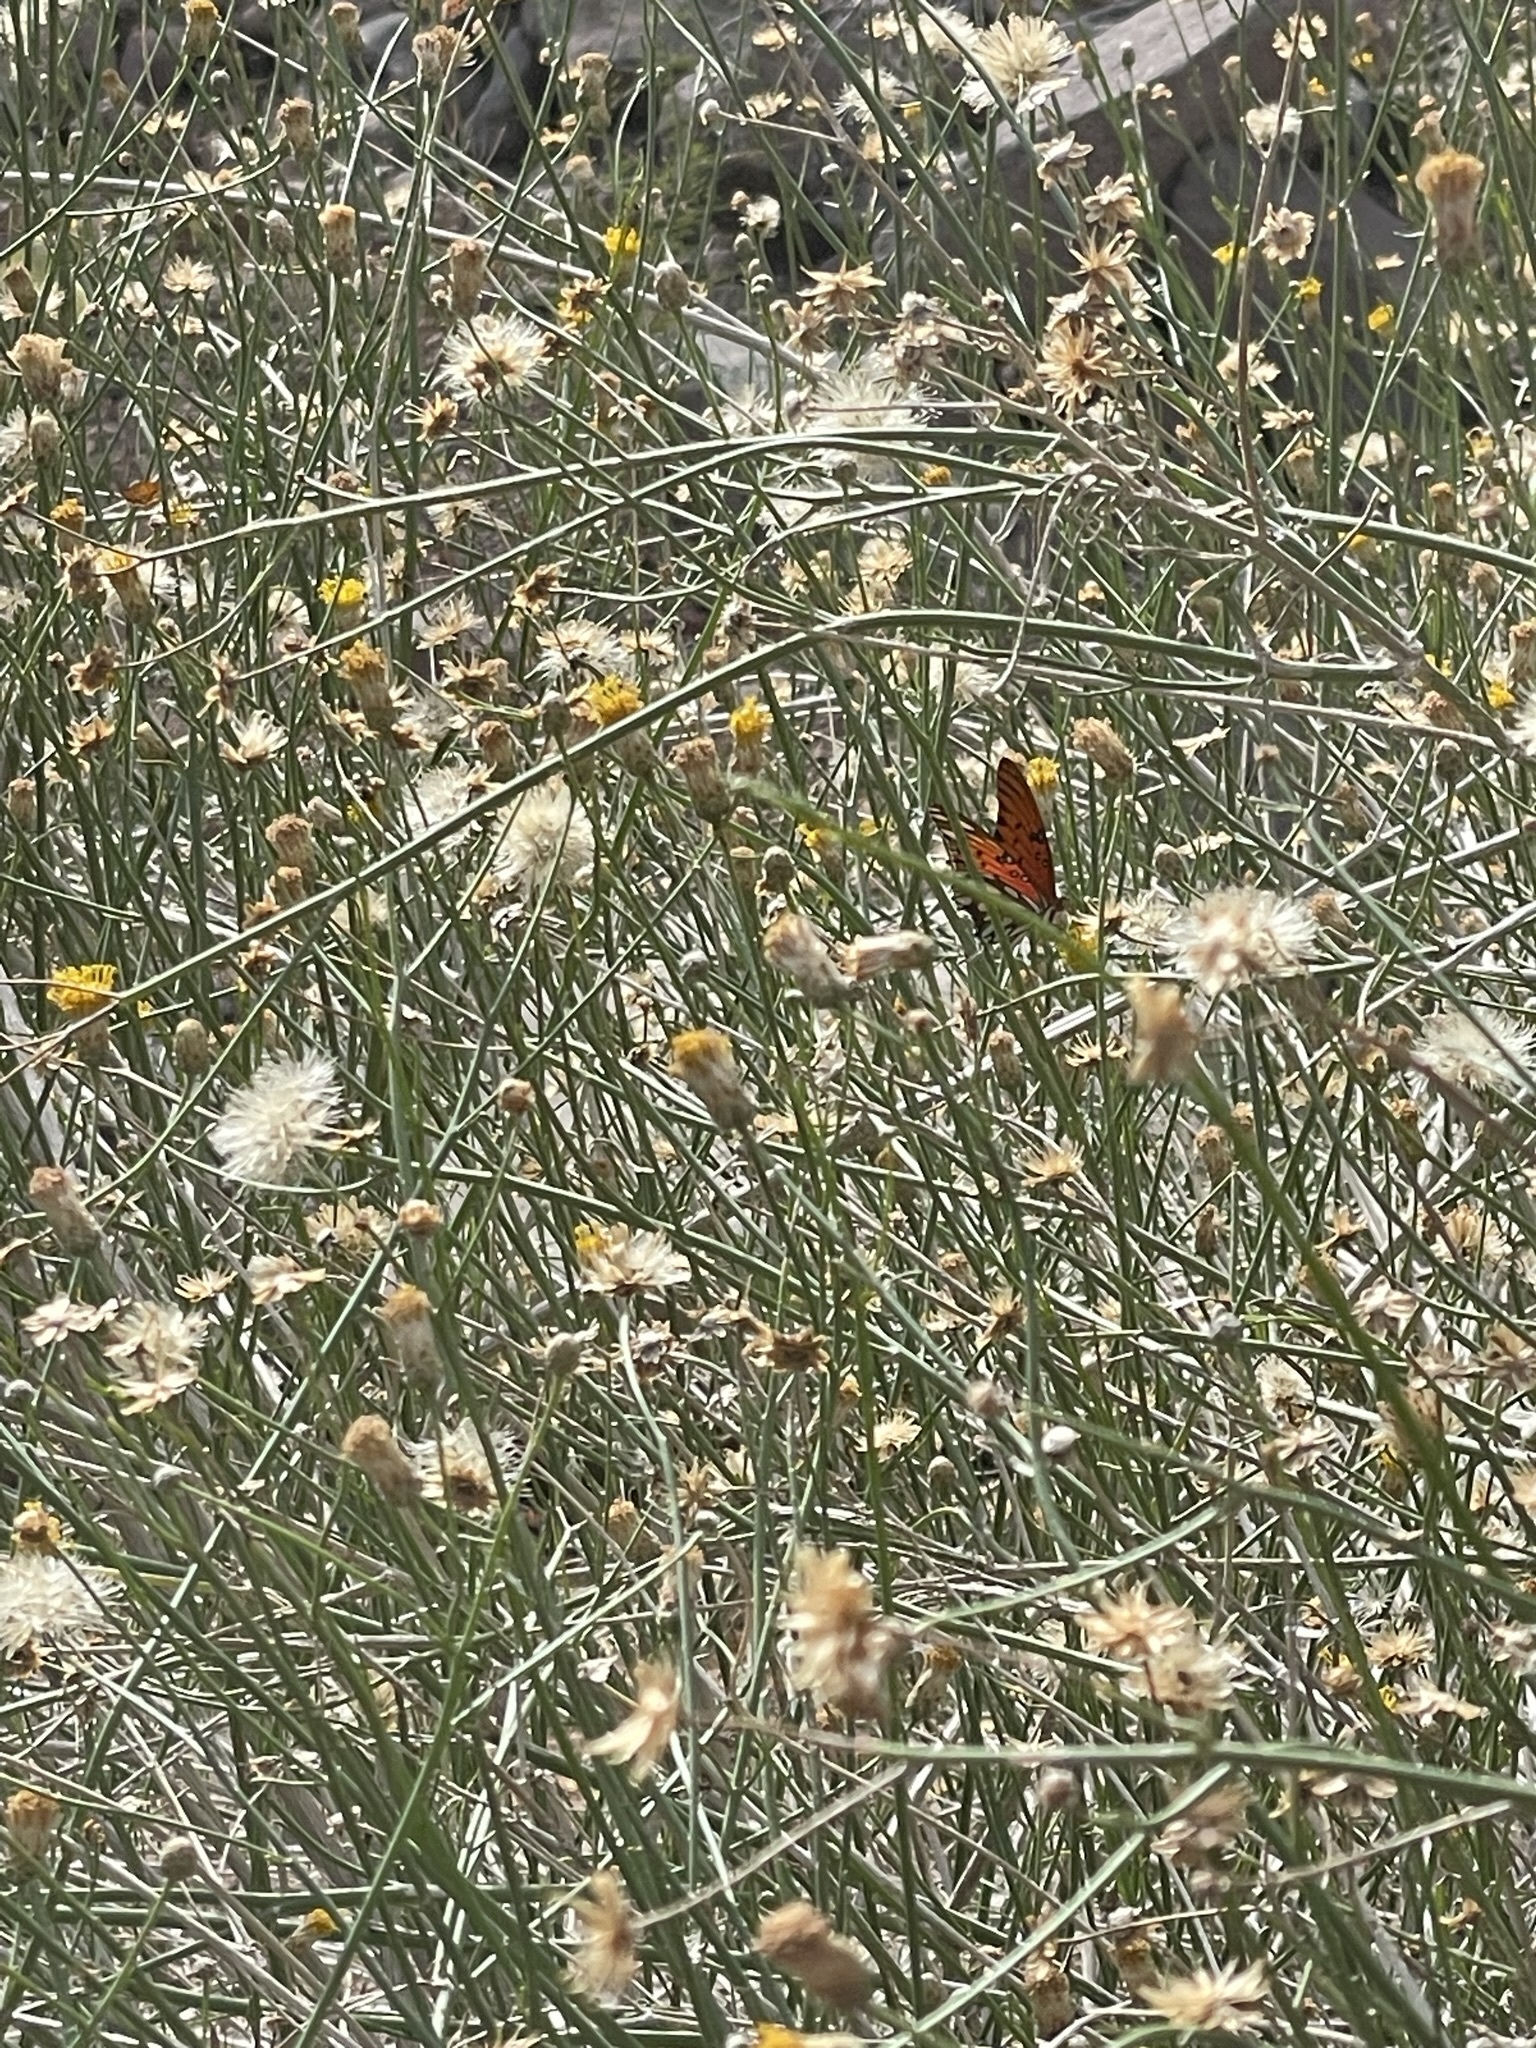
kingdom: Animalia
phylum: Arthropoda
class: Insecta
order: Lepidoptera
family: Nymphalidae
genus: Dione
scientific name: Dione vanillae
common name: Gulf fritillary
